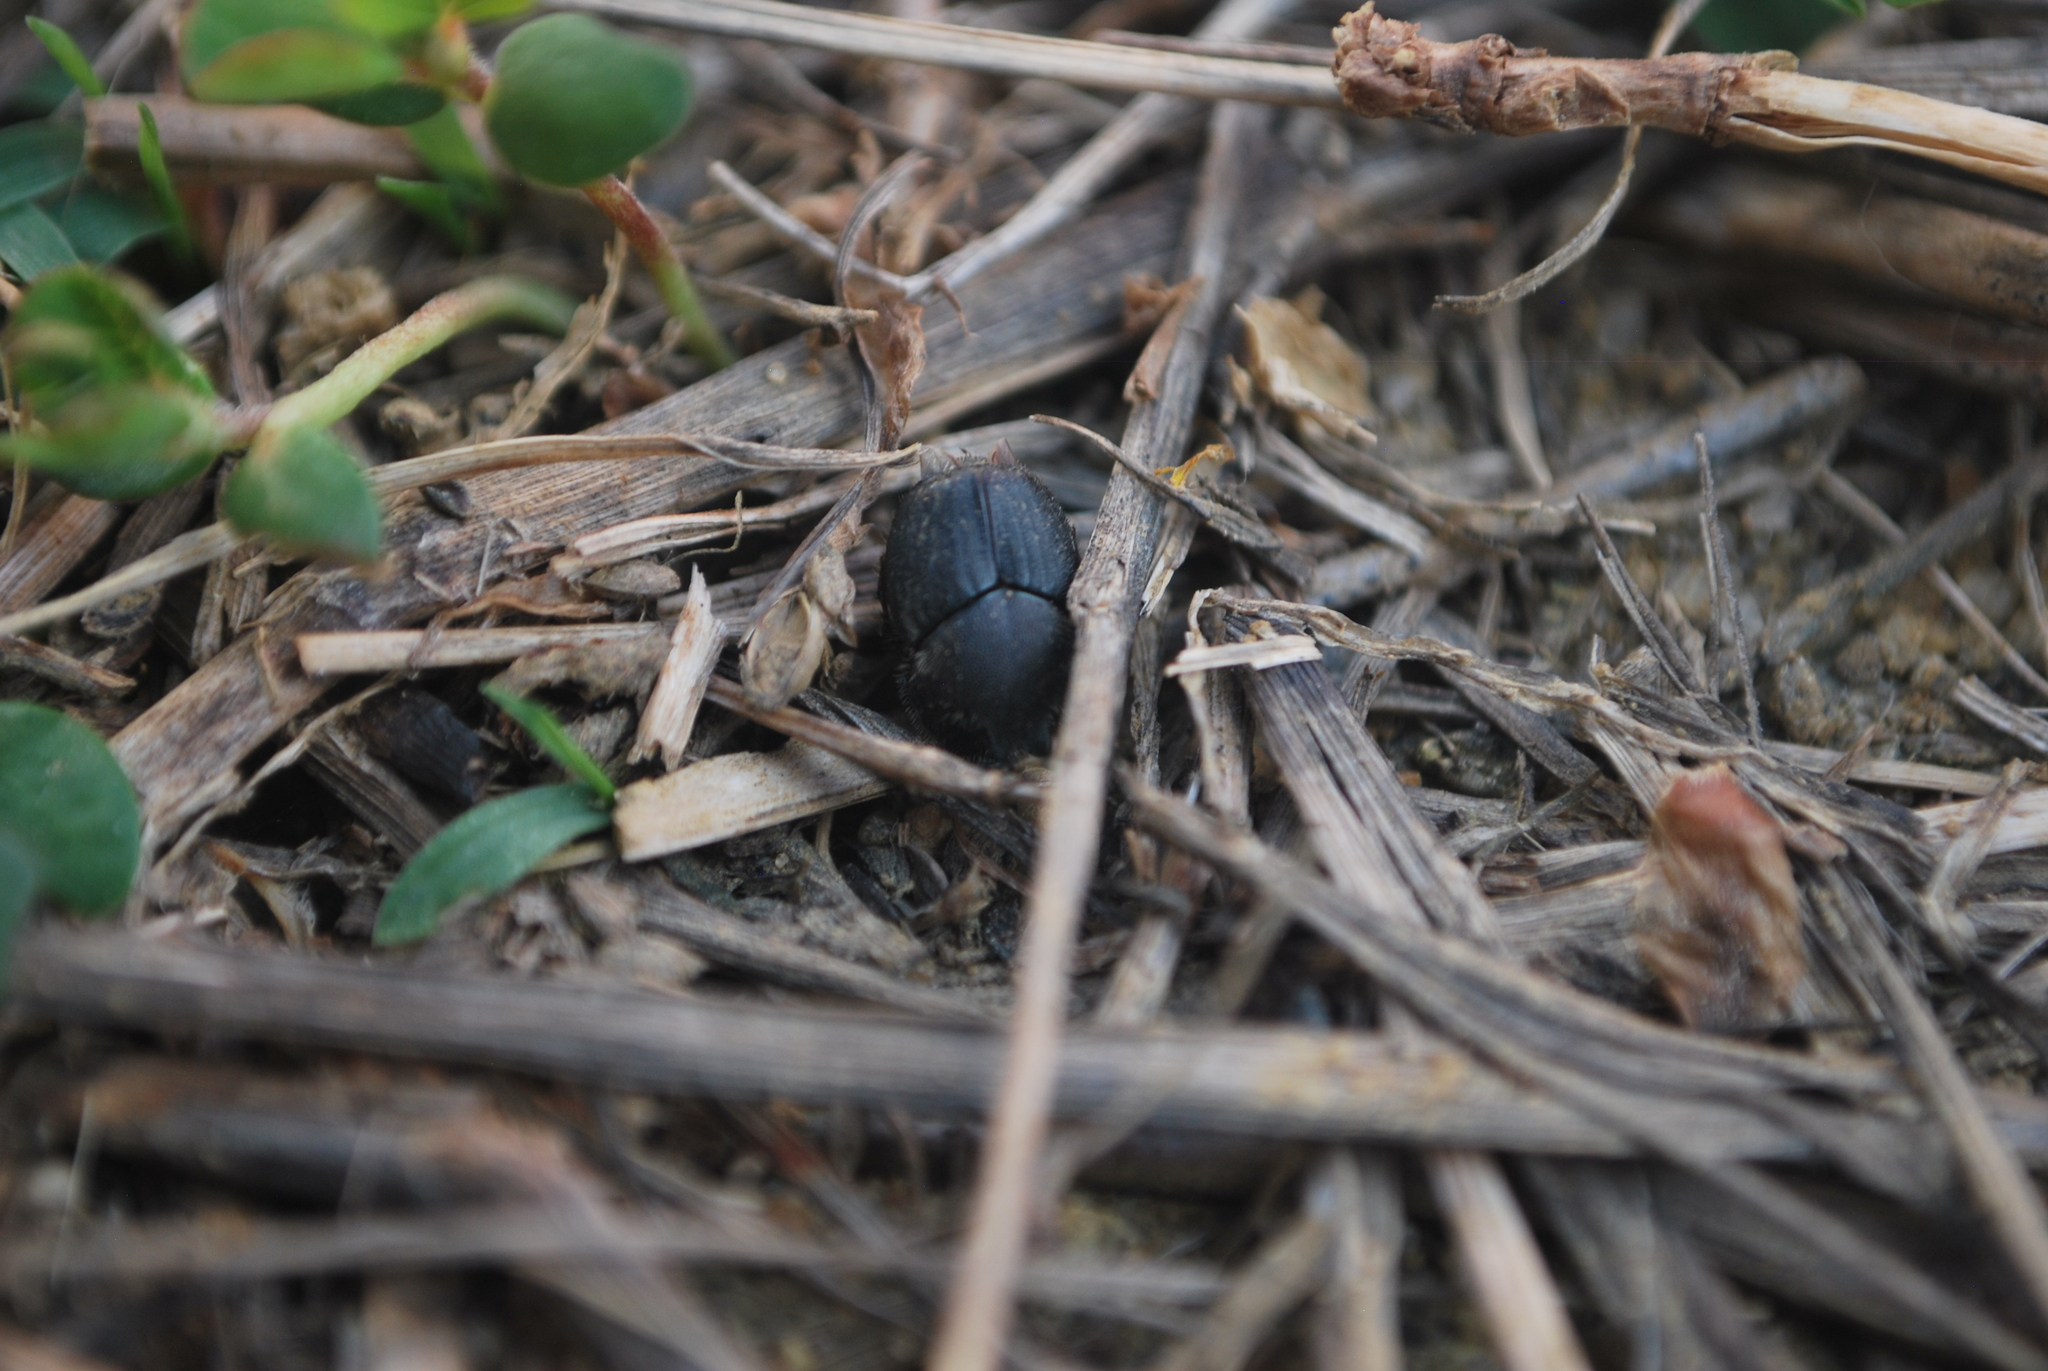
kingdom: Animalia
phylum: Arthropoda
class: Insecta
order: Coleoptera
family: Scarabaeidae
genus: Onthophagus
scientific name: Onthophagus hecate
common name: Scooped scarab
